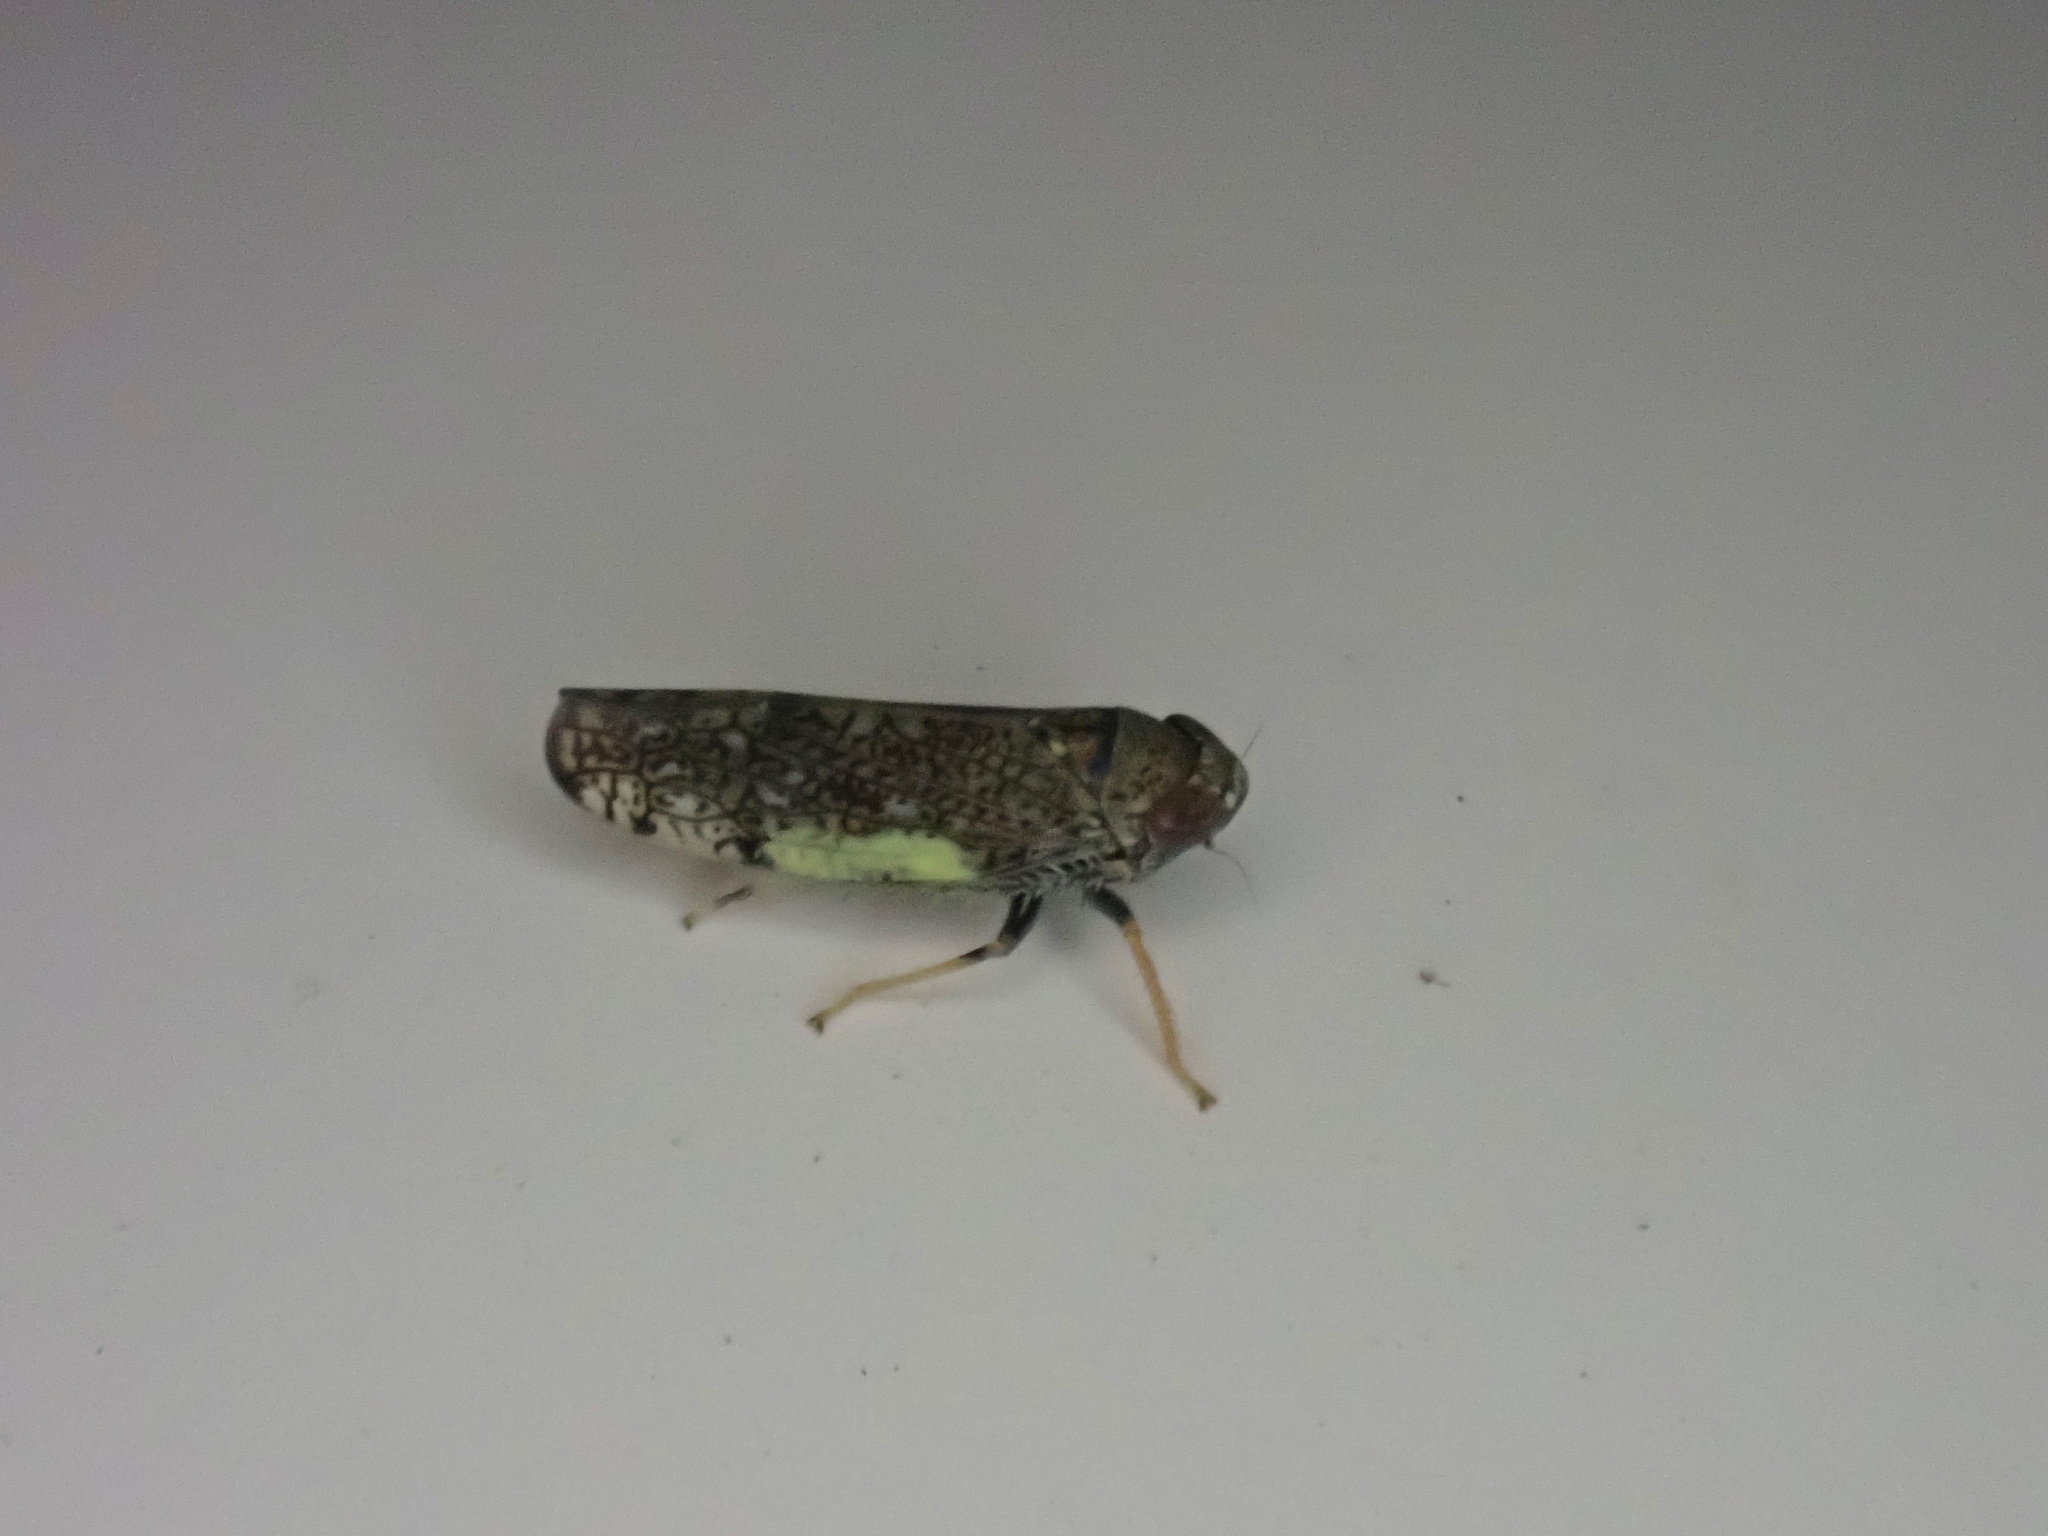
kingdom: Animalia
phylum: Arthropoda
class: Insecta
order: Hemiptera
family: Cicadellidae
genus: Orientus
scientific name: Orientus ishidae
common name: Japanese leafhopper
